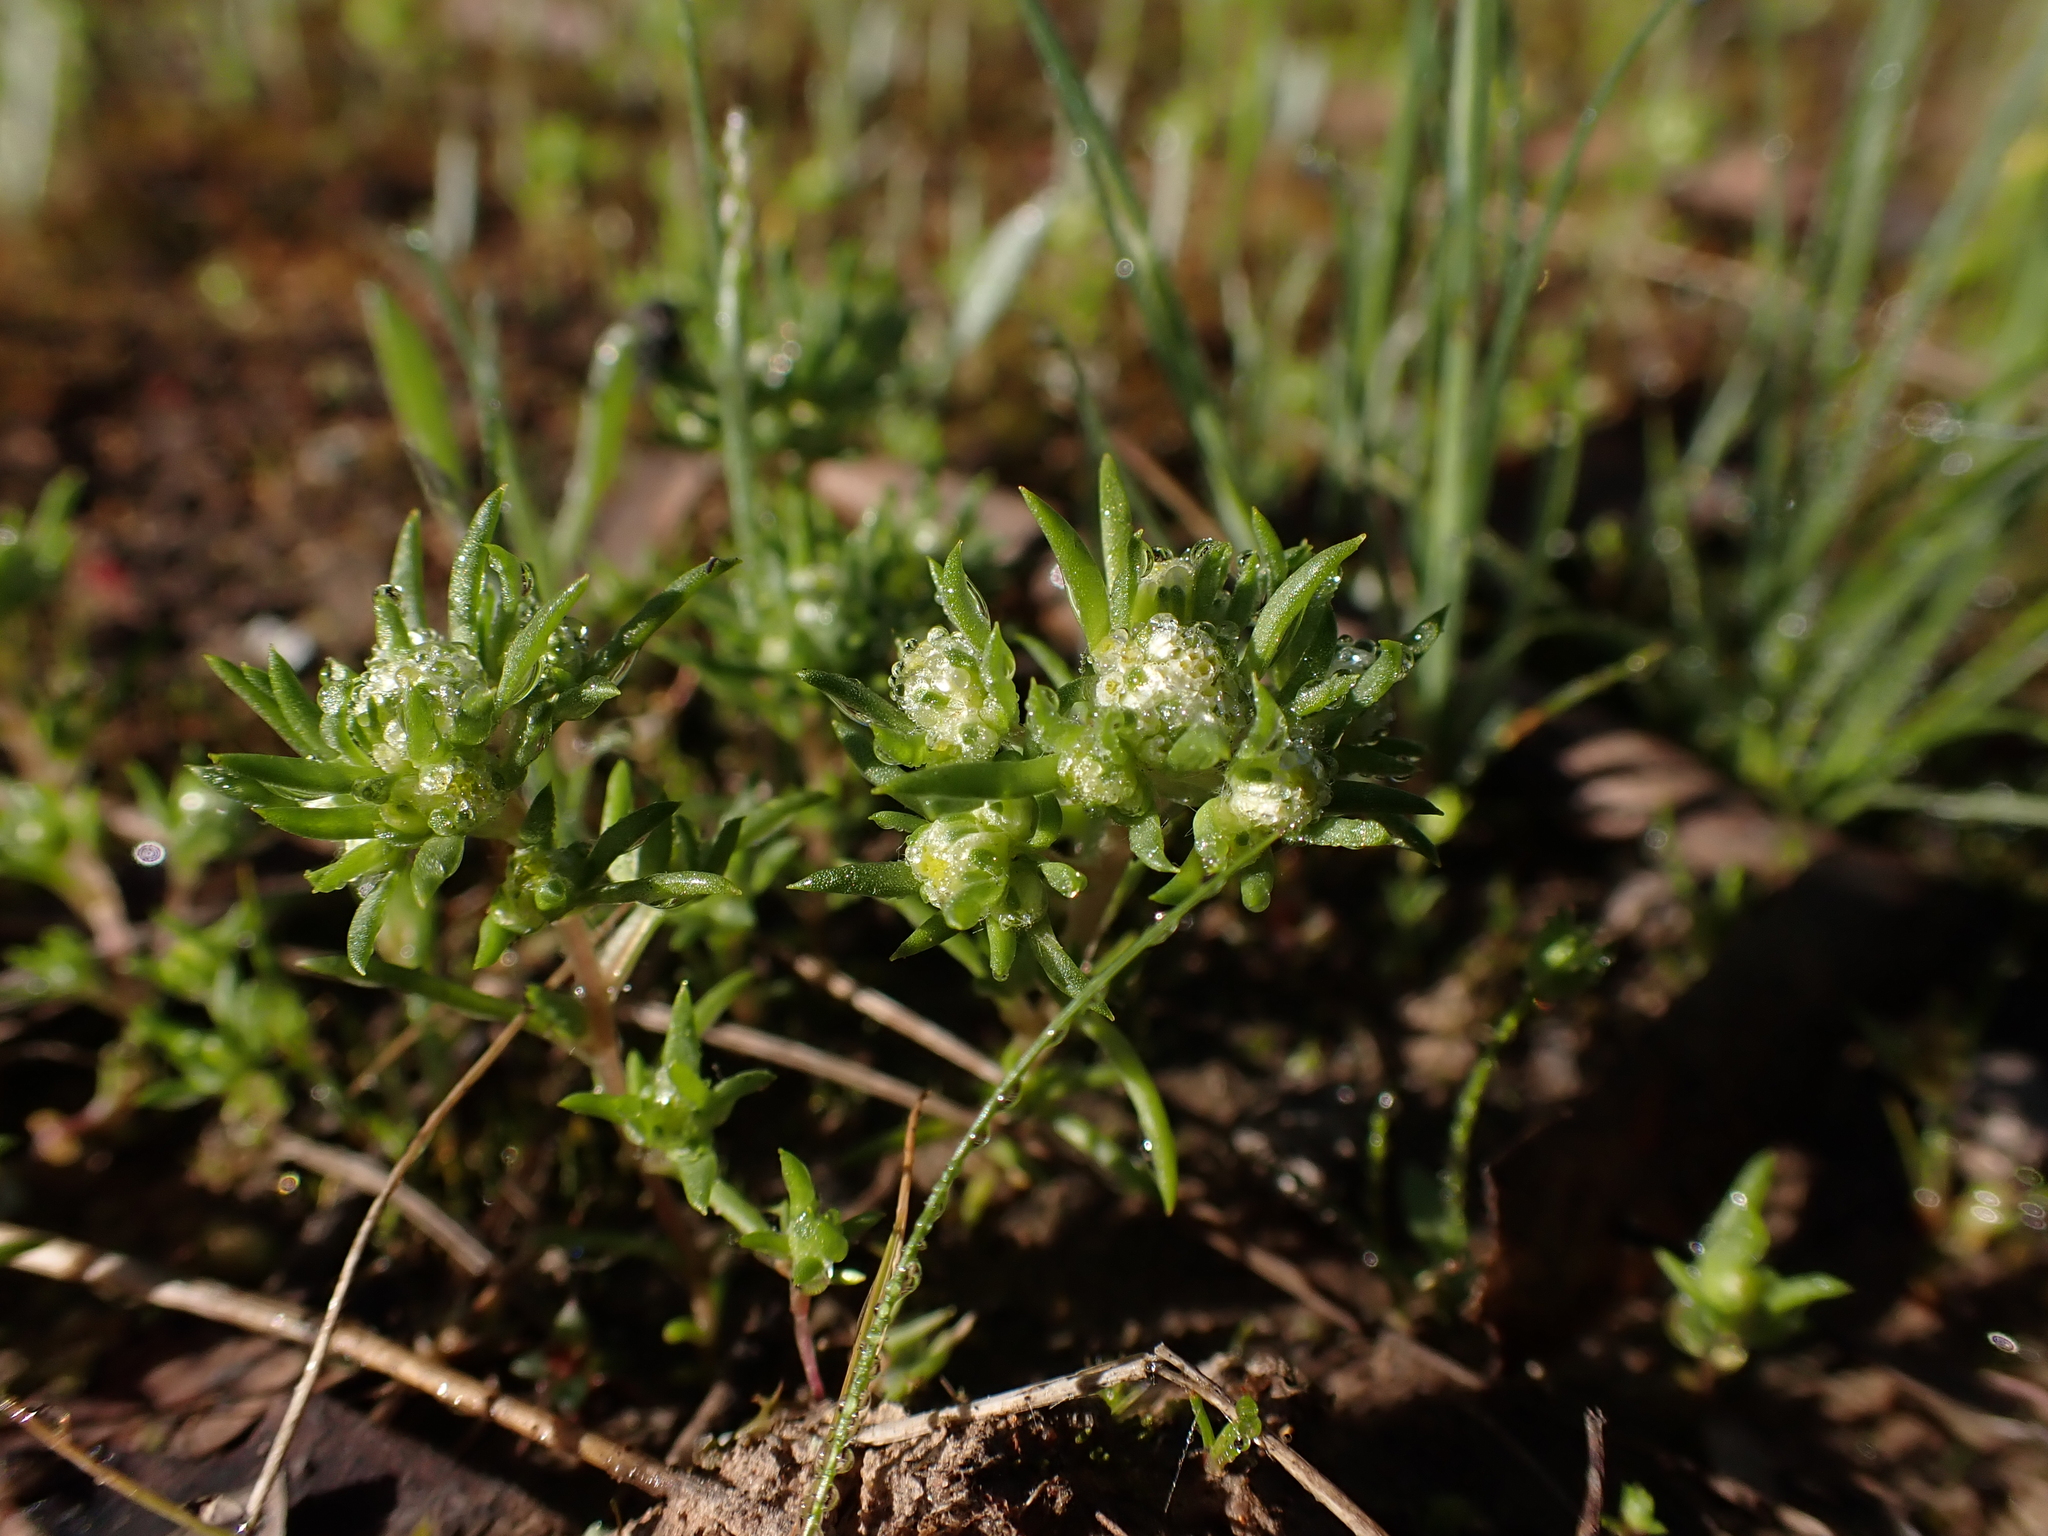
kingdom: Plantae
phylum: Tracheophyta
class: Magnoliopsida
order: Asterales
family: Asteraceae
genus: Siloxerus
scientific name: Siloxerus multiflorus
